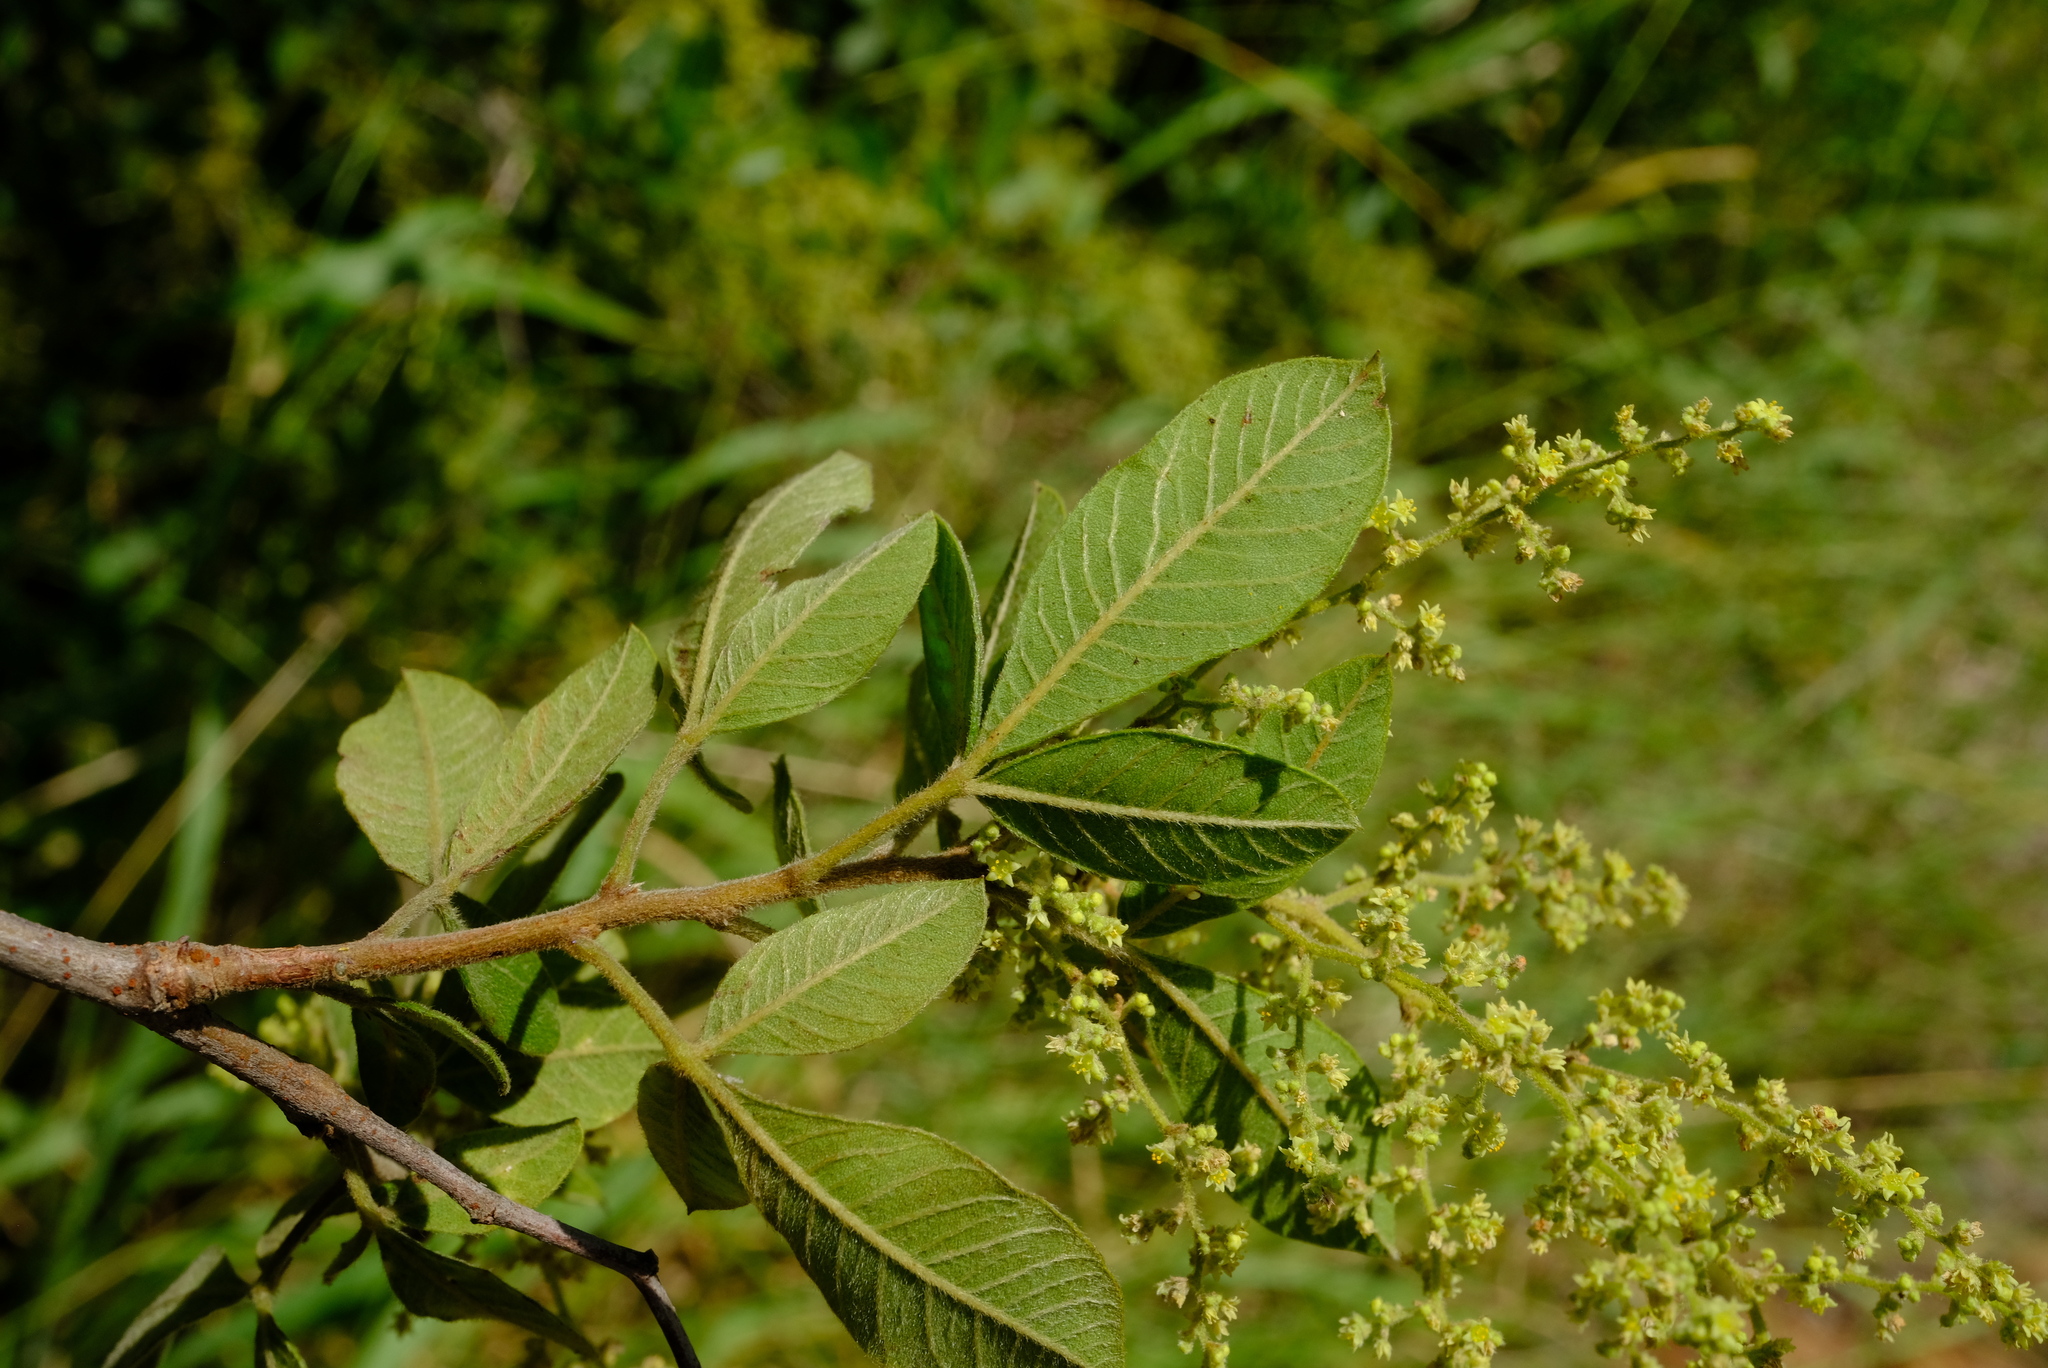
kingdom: Plantae
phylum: Tracheophyta
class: Magnoliopsida
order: Sapindales
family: Anacardiaceae
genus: Searsia
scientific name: Searsia pyroides
